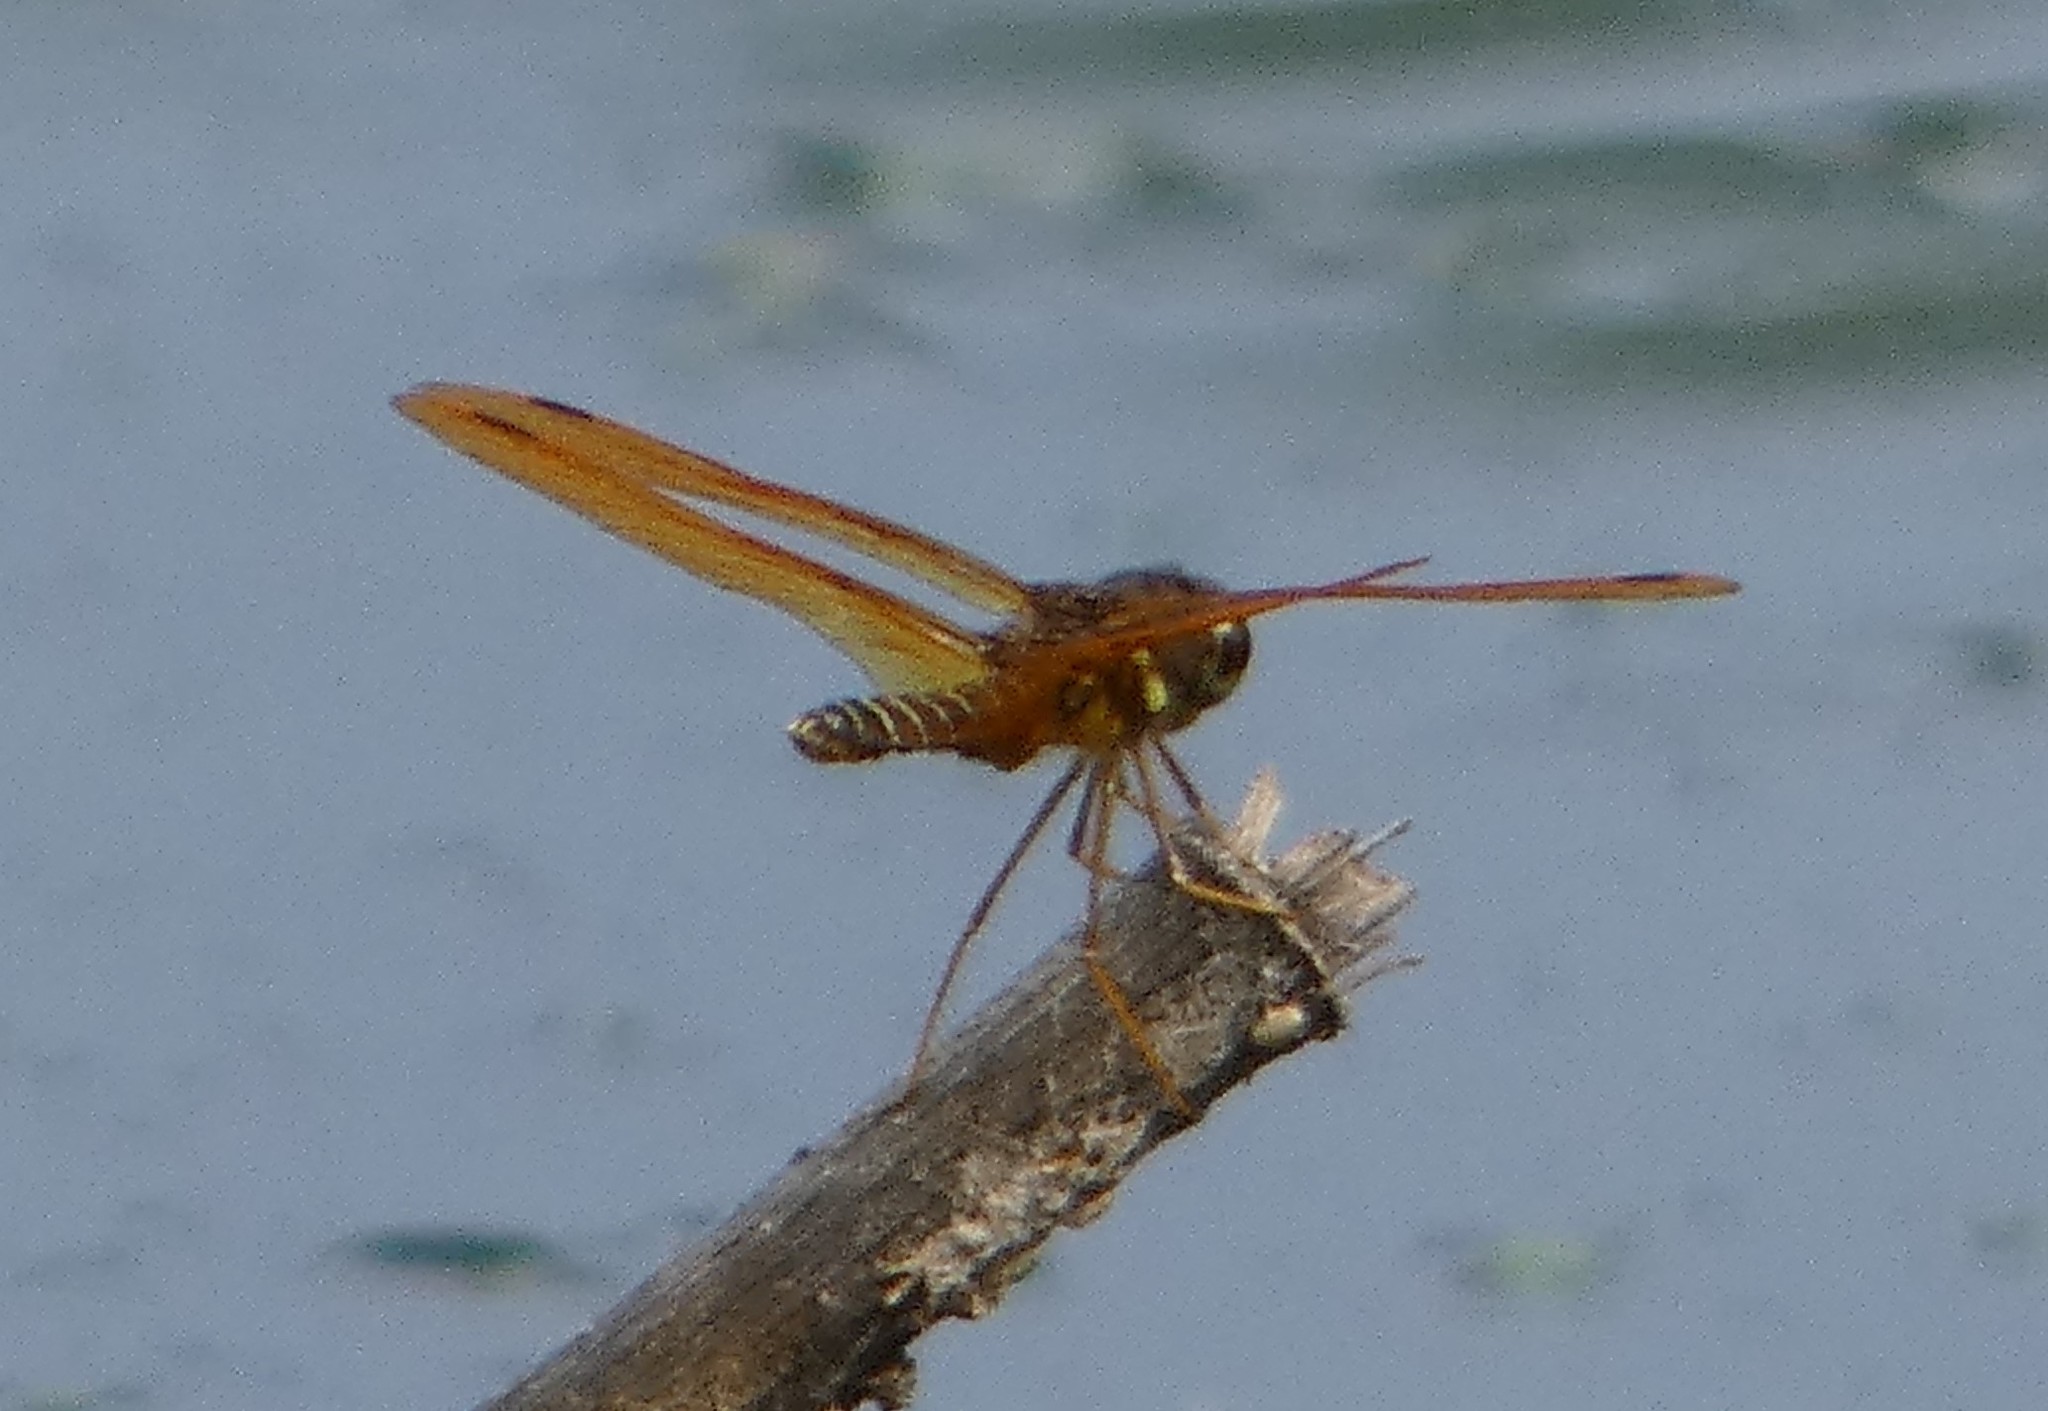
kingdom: Animalia
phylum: Arthropoda
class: Insecta
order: Odonata
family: Libellulidae
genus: Perithemis
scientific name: Perithemis tenera
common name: Eastern amberwing
